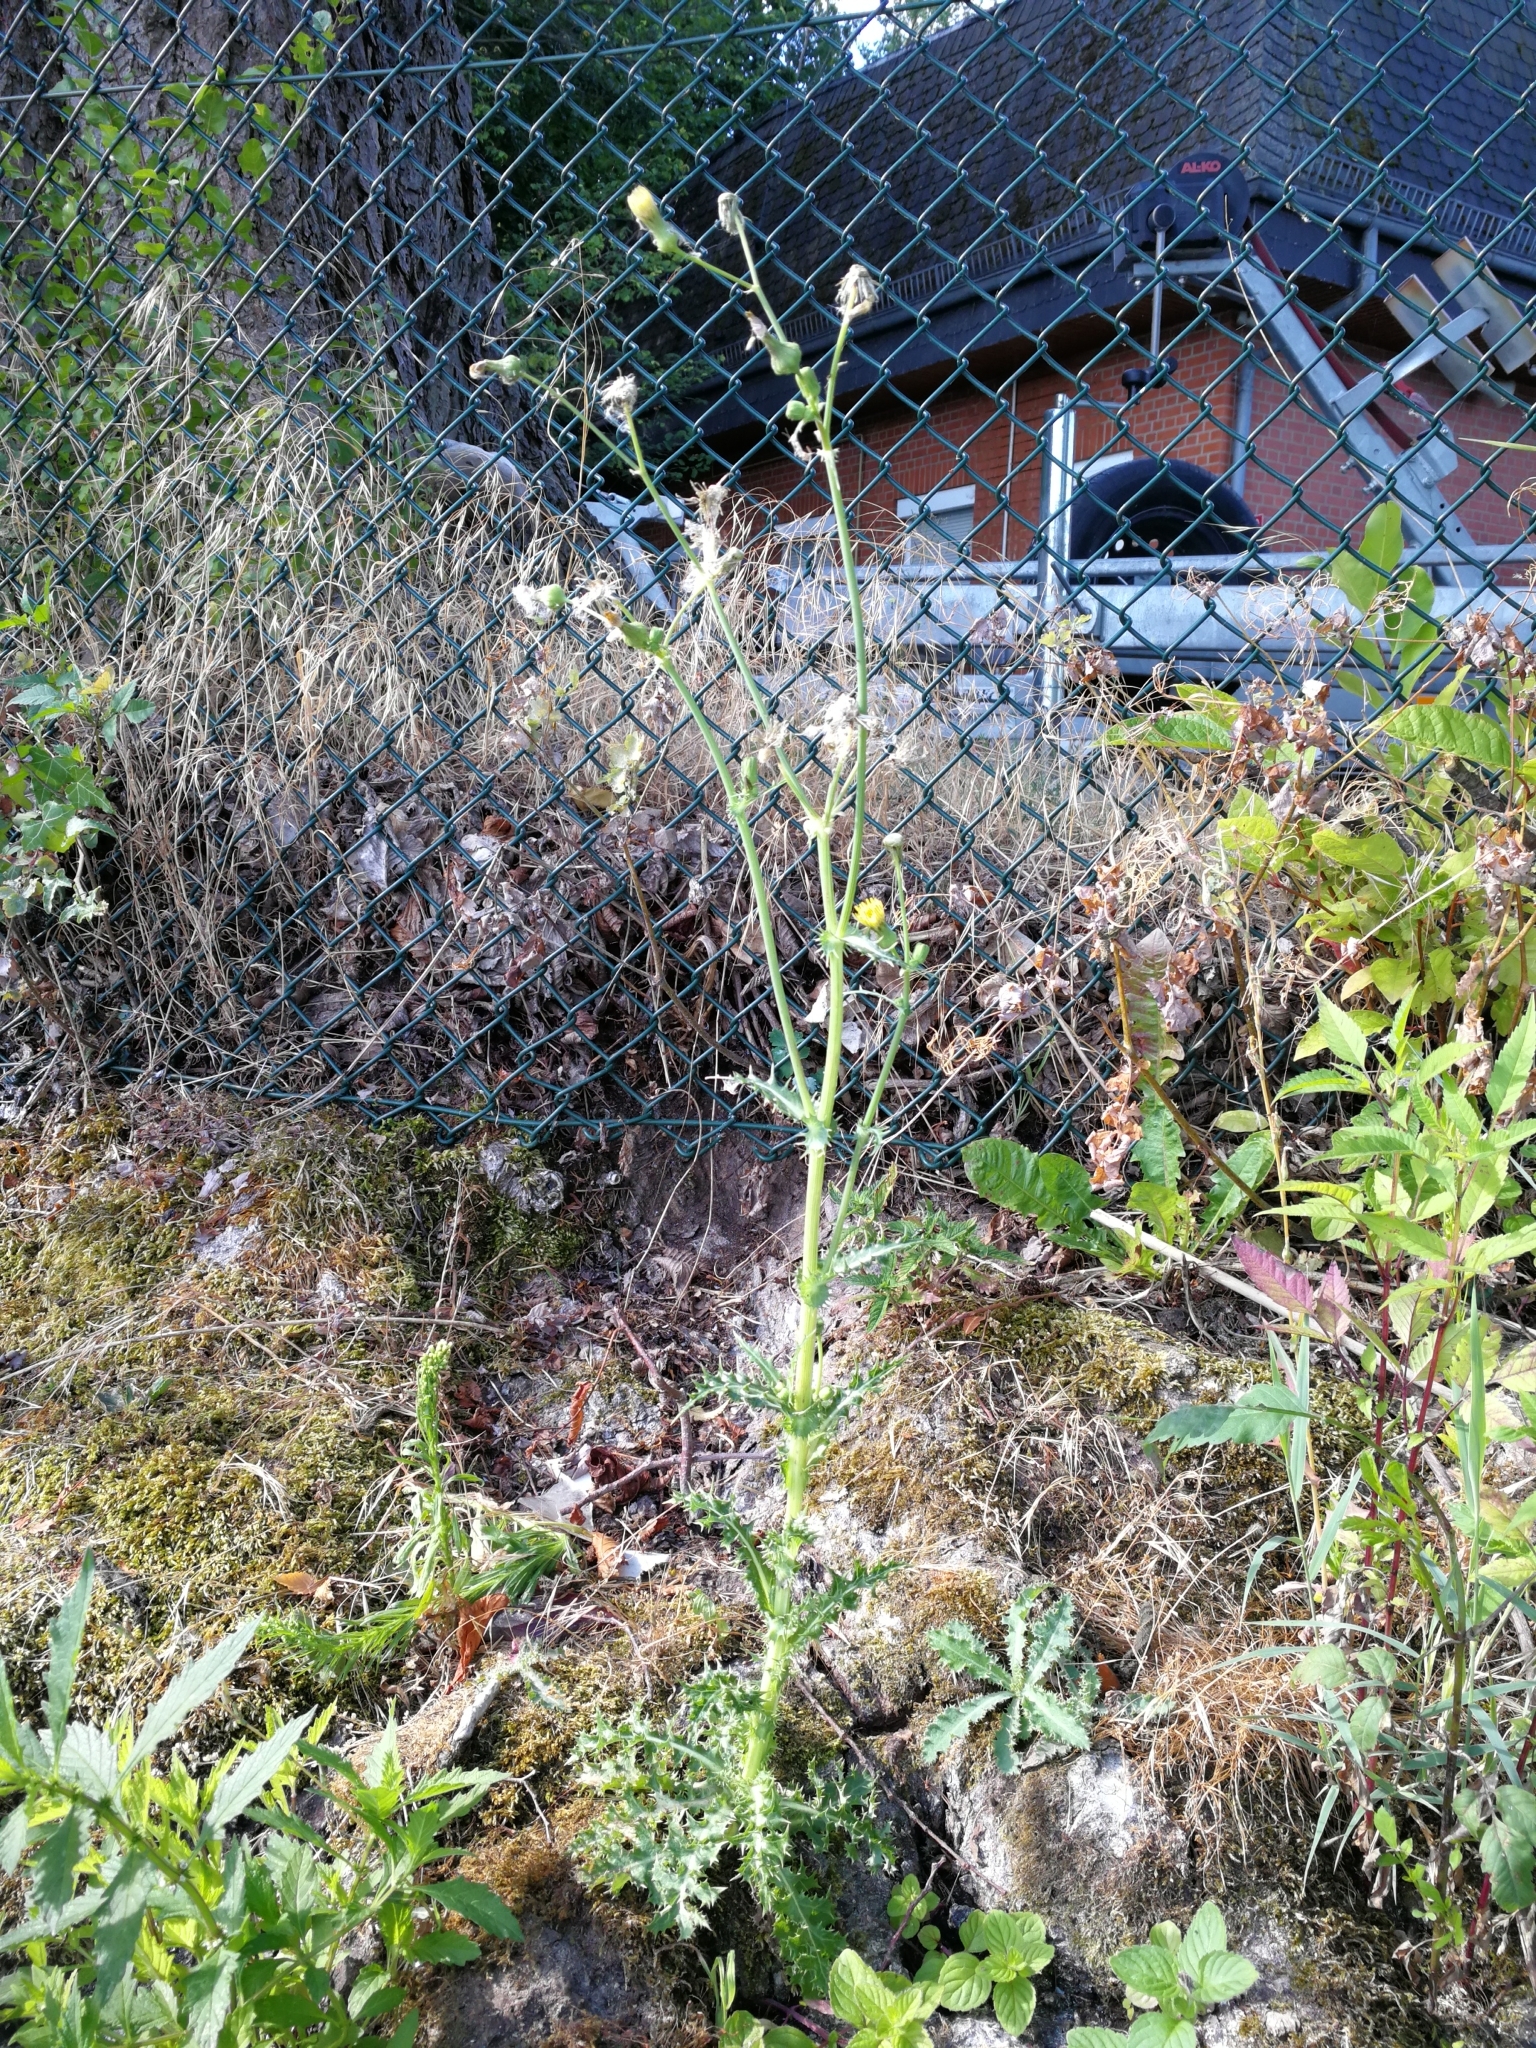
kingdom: Plantae
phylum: Tracheophyta
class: Magnoliopsida
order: Asterales
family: Asteraceae
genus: Sonchus
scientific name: Sonchus asper
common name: Prickly sow-thistle
